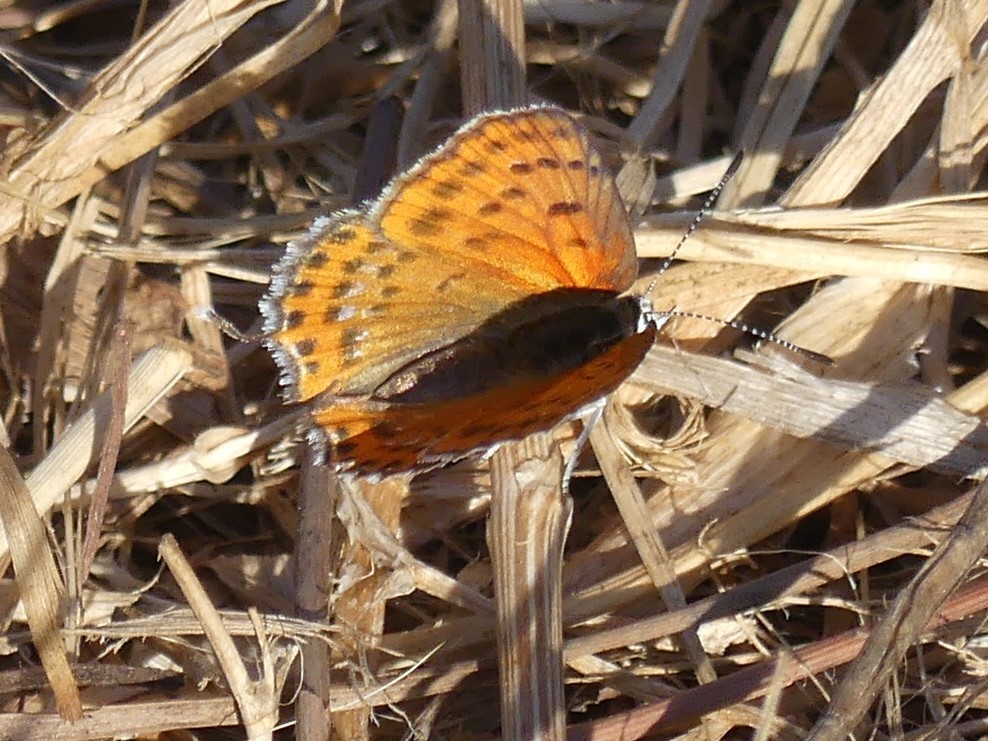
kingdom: Animalia
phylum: Arthropoda
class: Insecta
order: Lepidoptera
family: Lycaenidae
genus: Thersamonia
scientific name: Thersamonia thersamon
